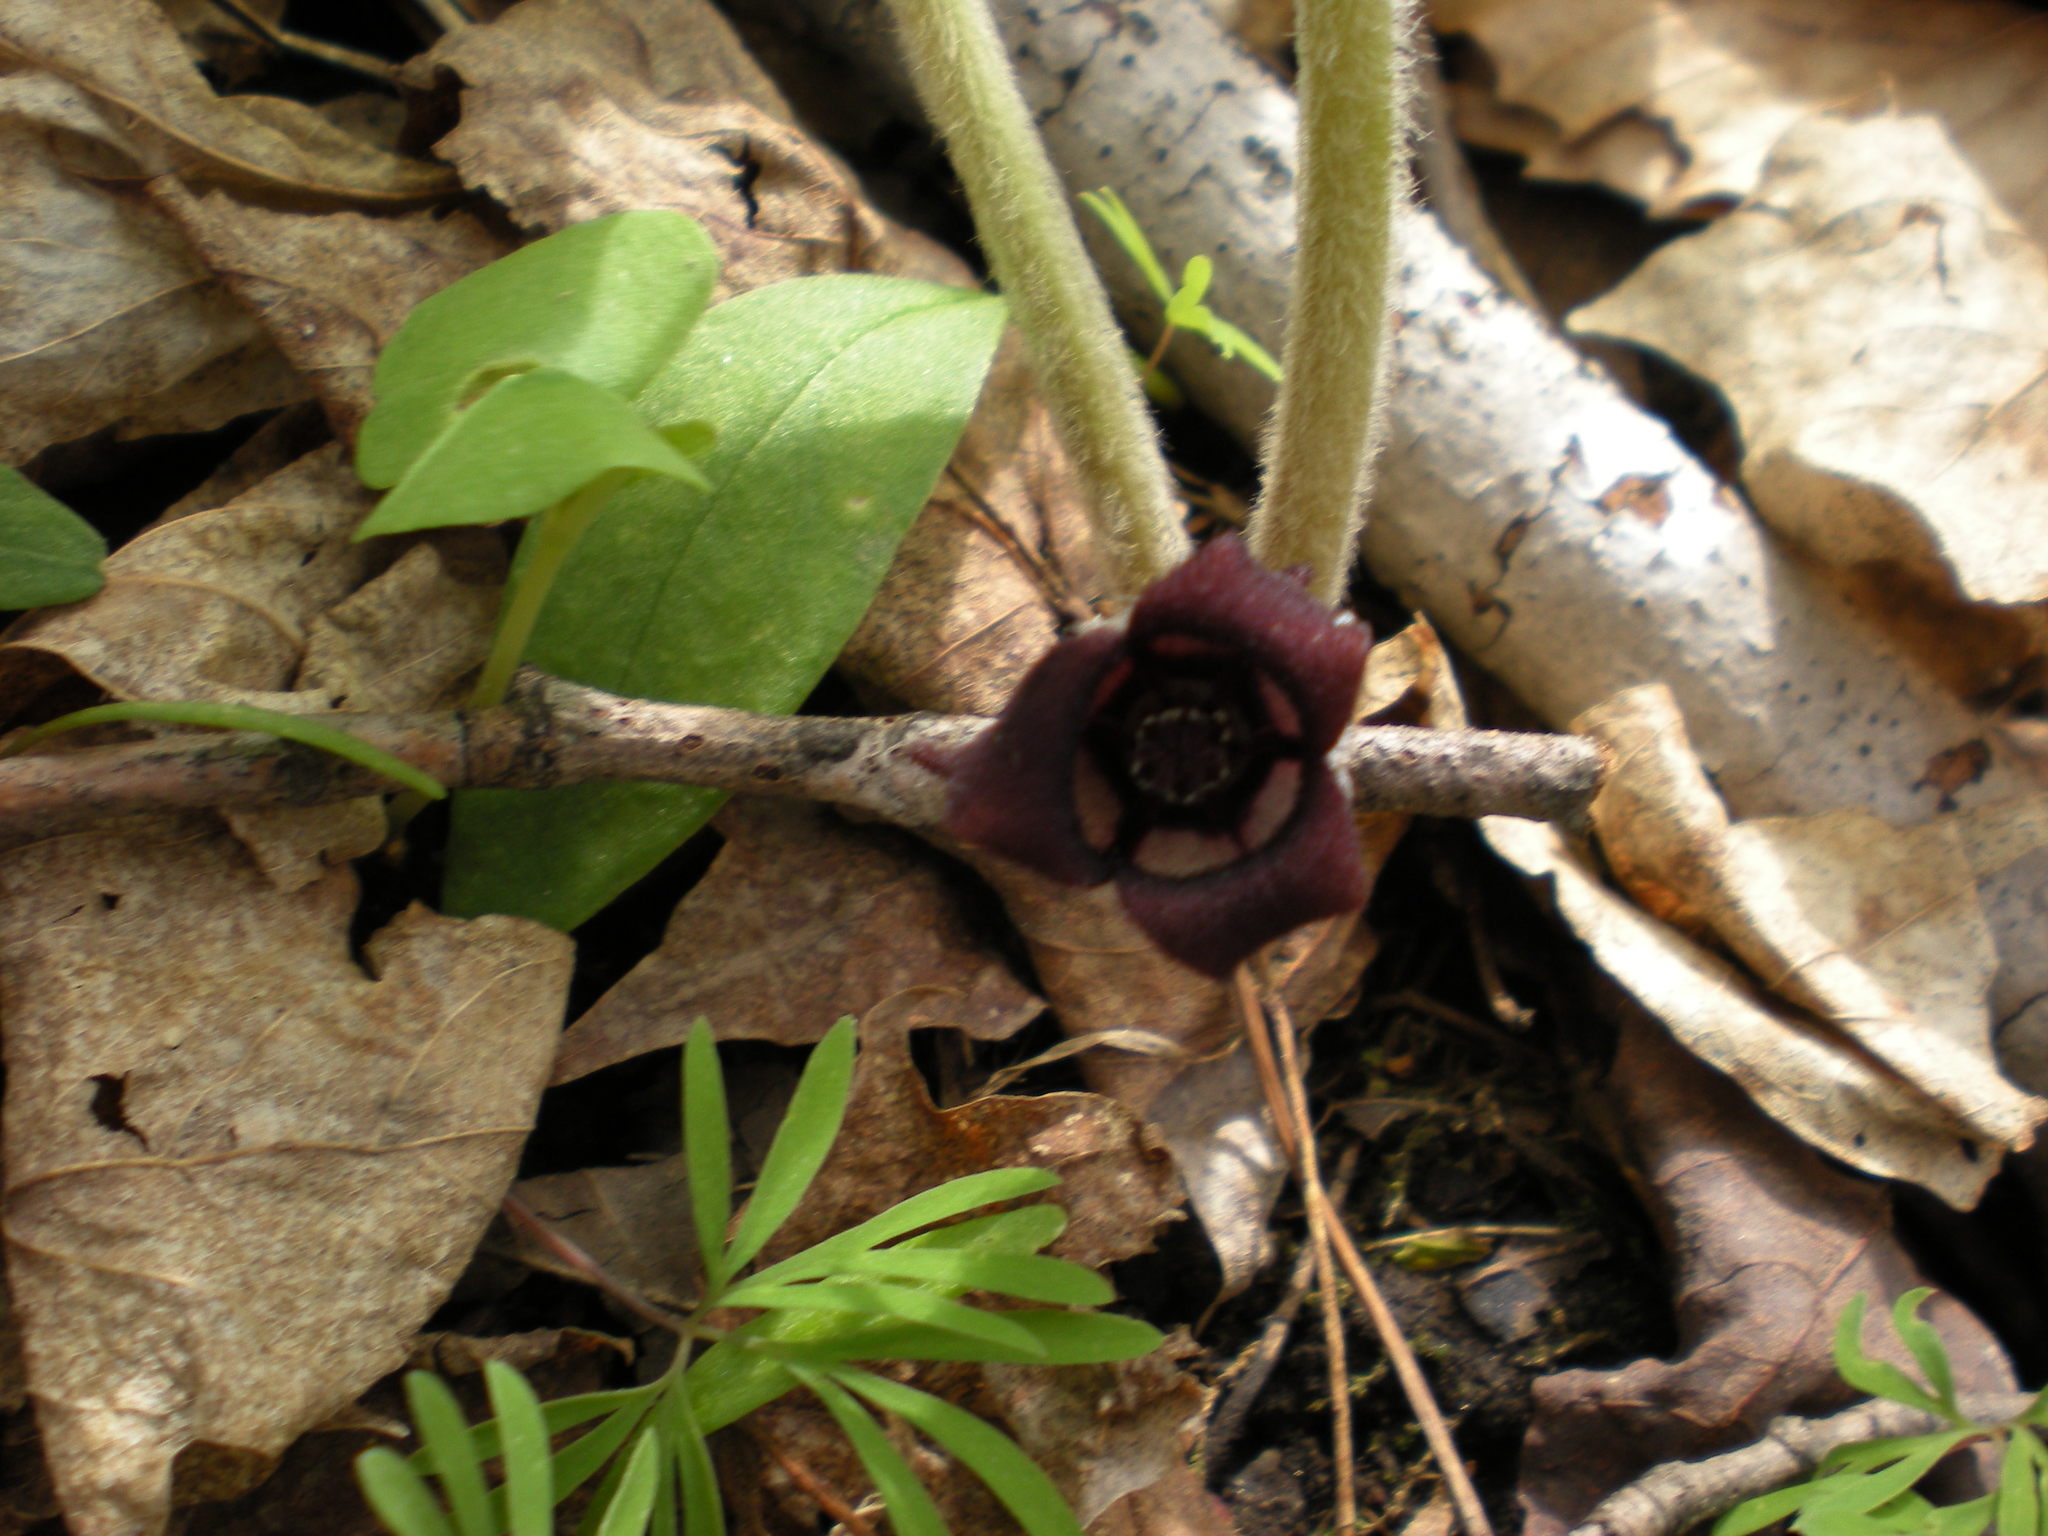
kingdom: Plantae
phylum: Tracheophyta
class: Magnoliopsida
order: Piperales
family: Aristolochiaceae
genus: Asarum
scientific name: Asarum canadense
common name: Wild ginger
